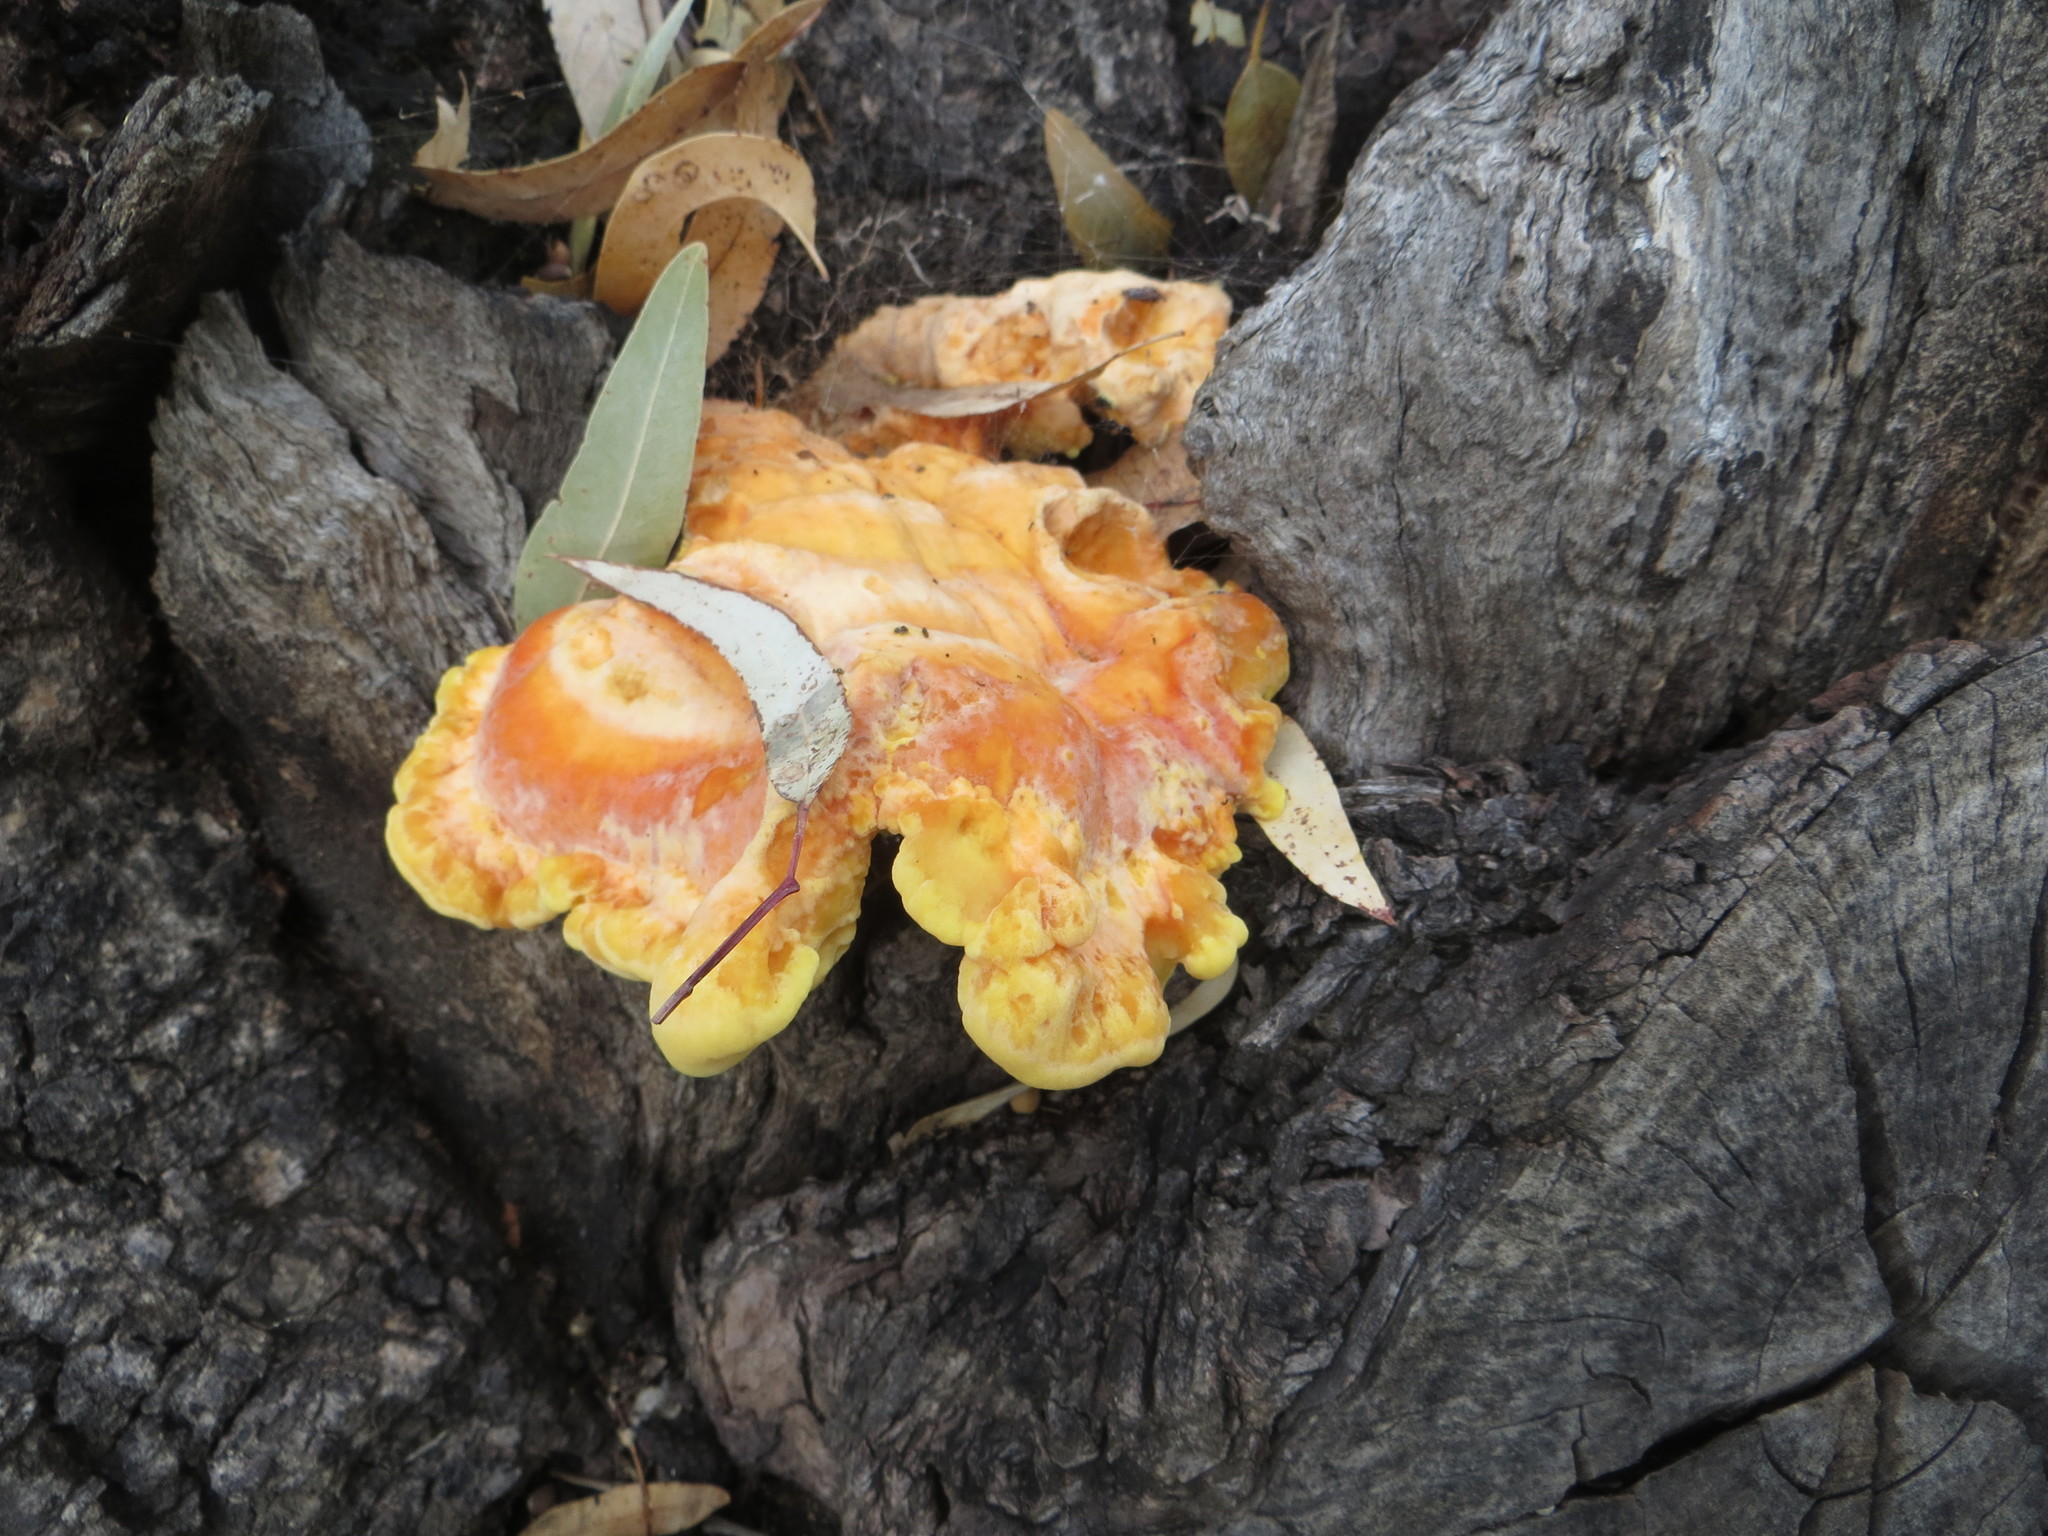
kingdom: Fungi
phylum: Basidiomycota
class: Agaricomycetes
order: Polyporales
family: Laetiporaceae
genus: Laetiporus
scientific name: Laetiporus gilbertsonii
